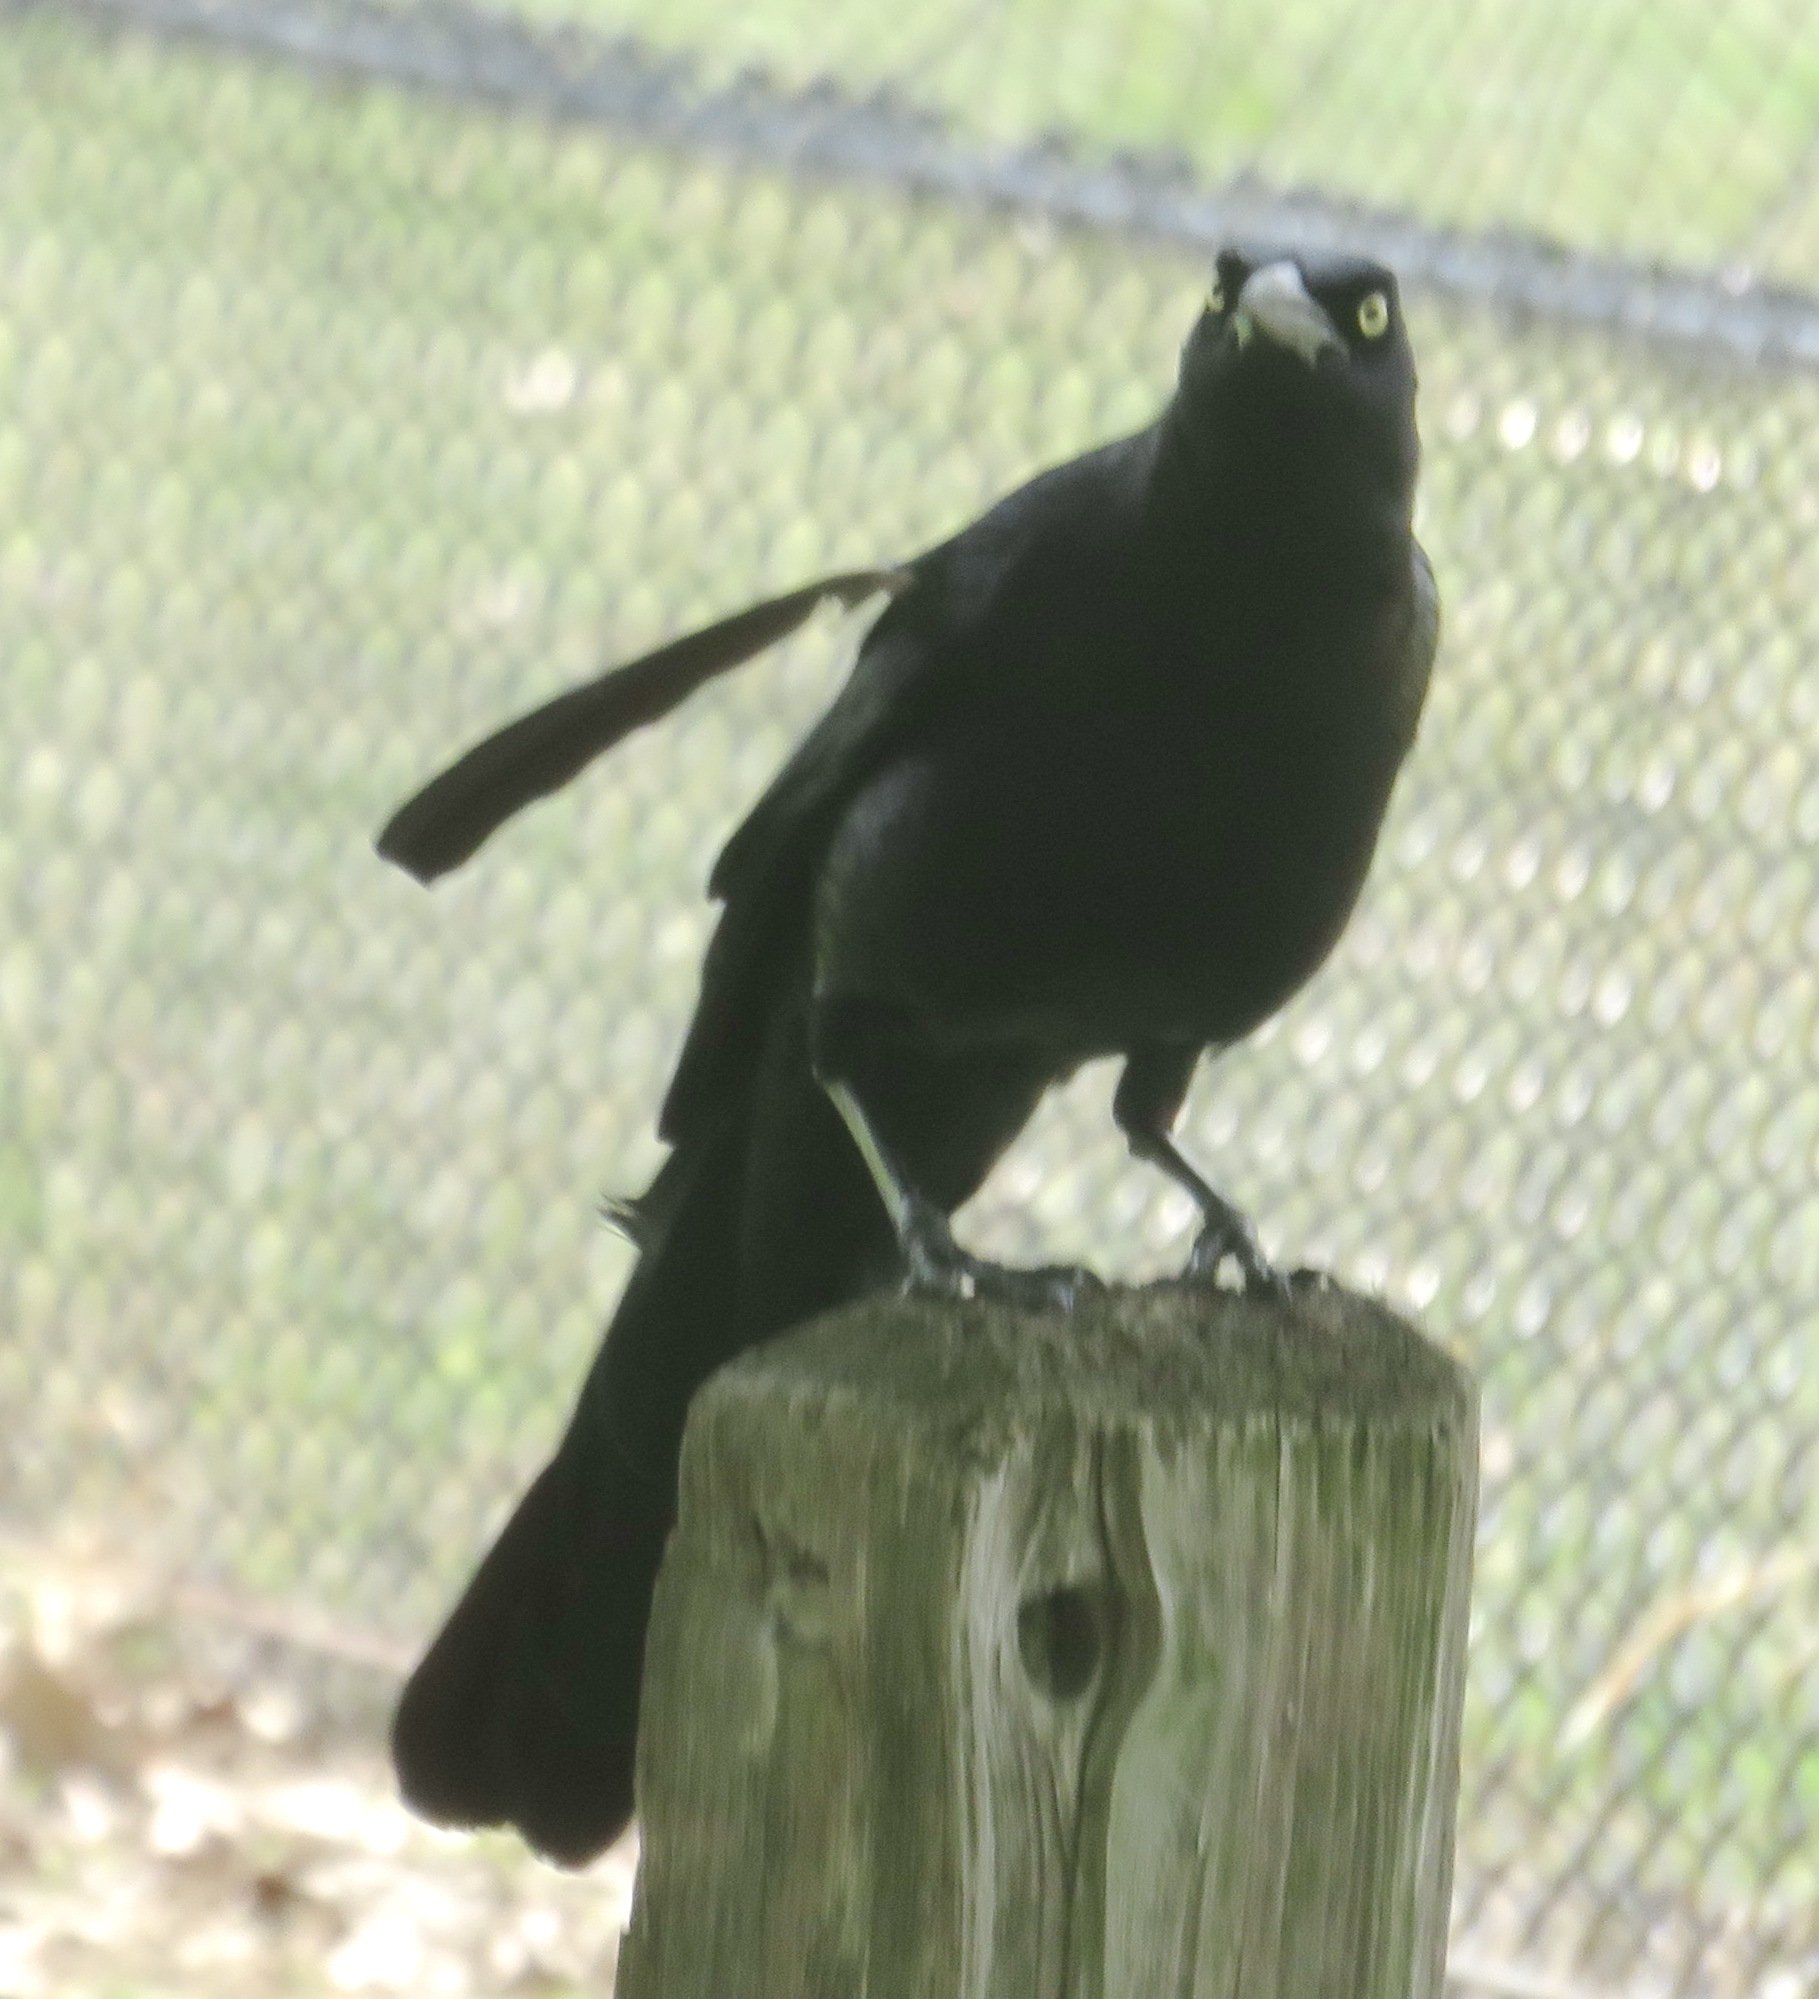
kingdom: Animalia
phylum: Chordata
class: Aves
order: Passeriformes
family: Icteridae
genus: Quiscalus
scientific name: Quiscalus mexicanus
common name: Great-tailed grackle
